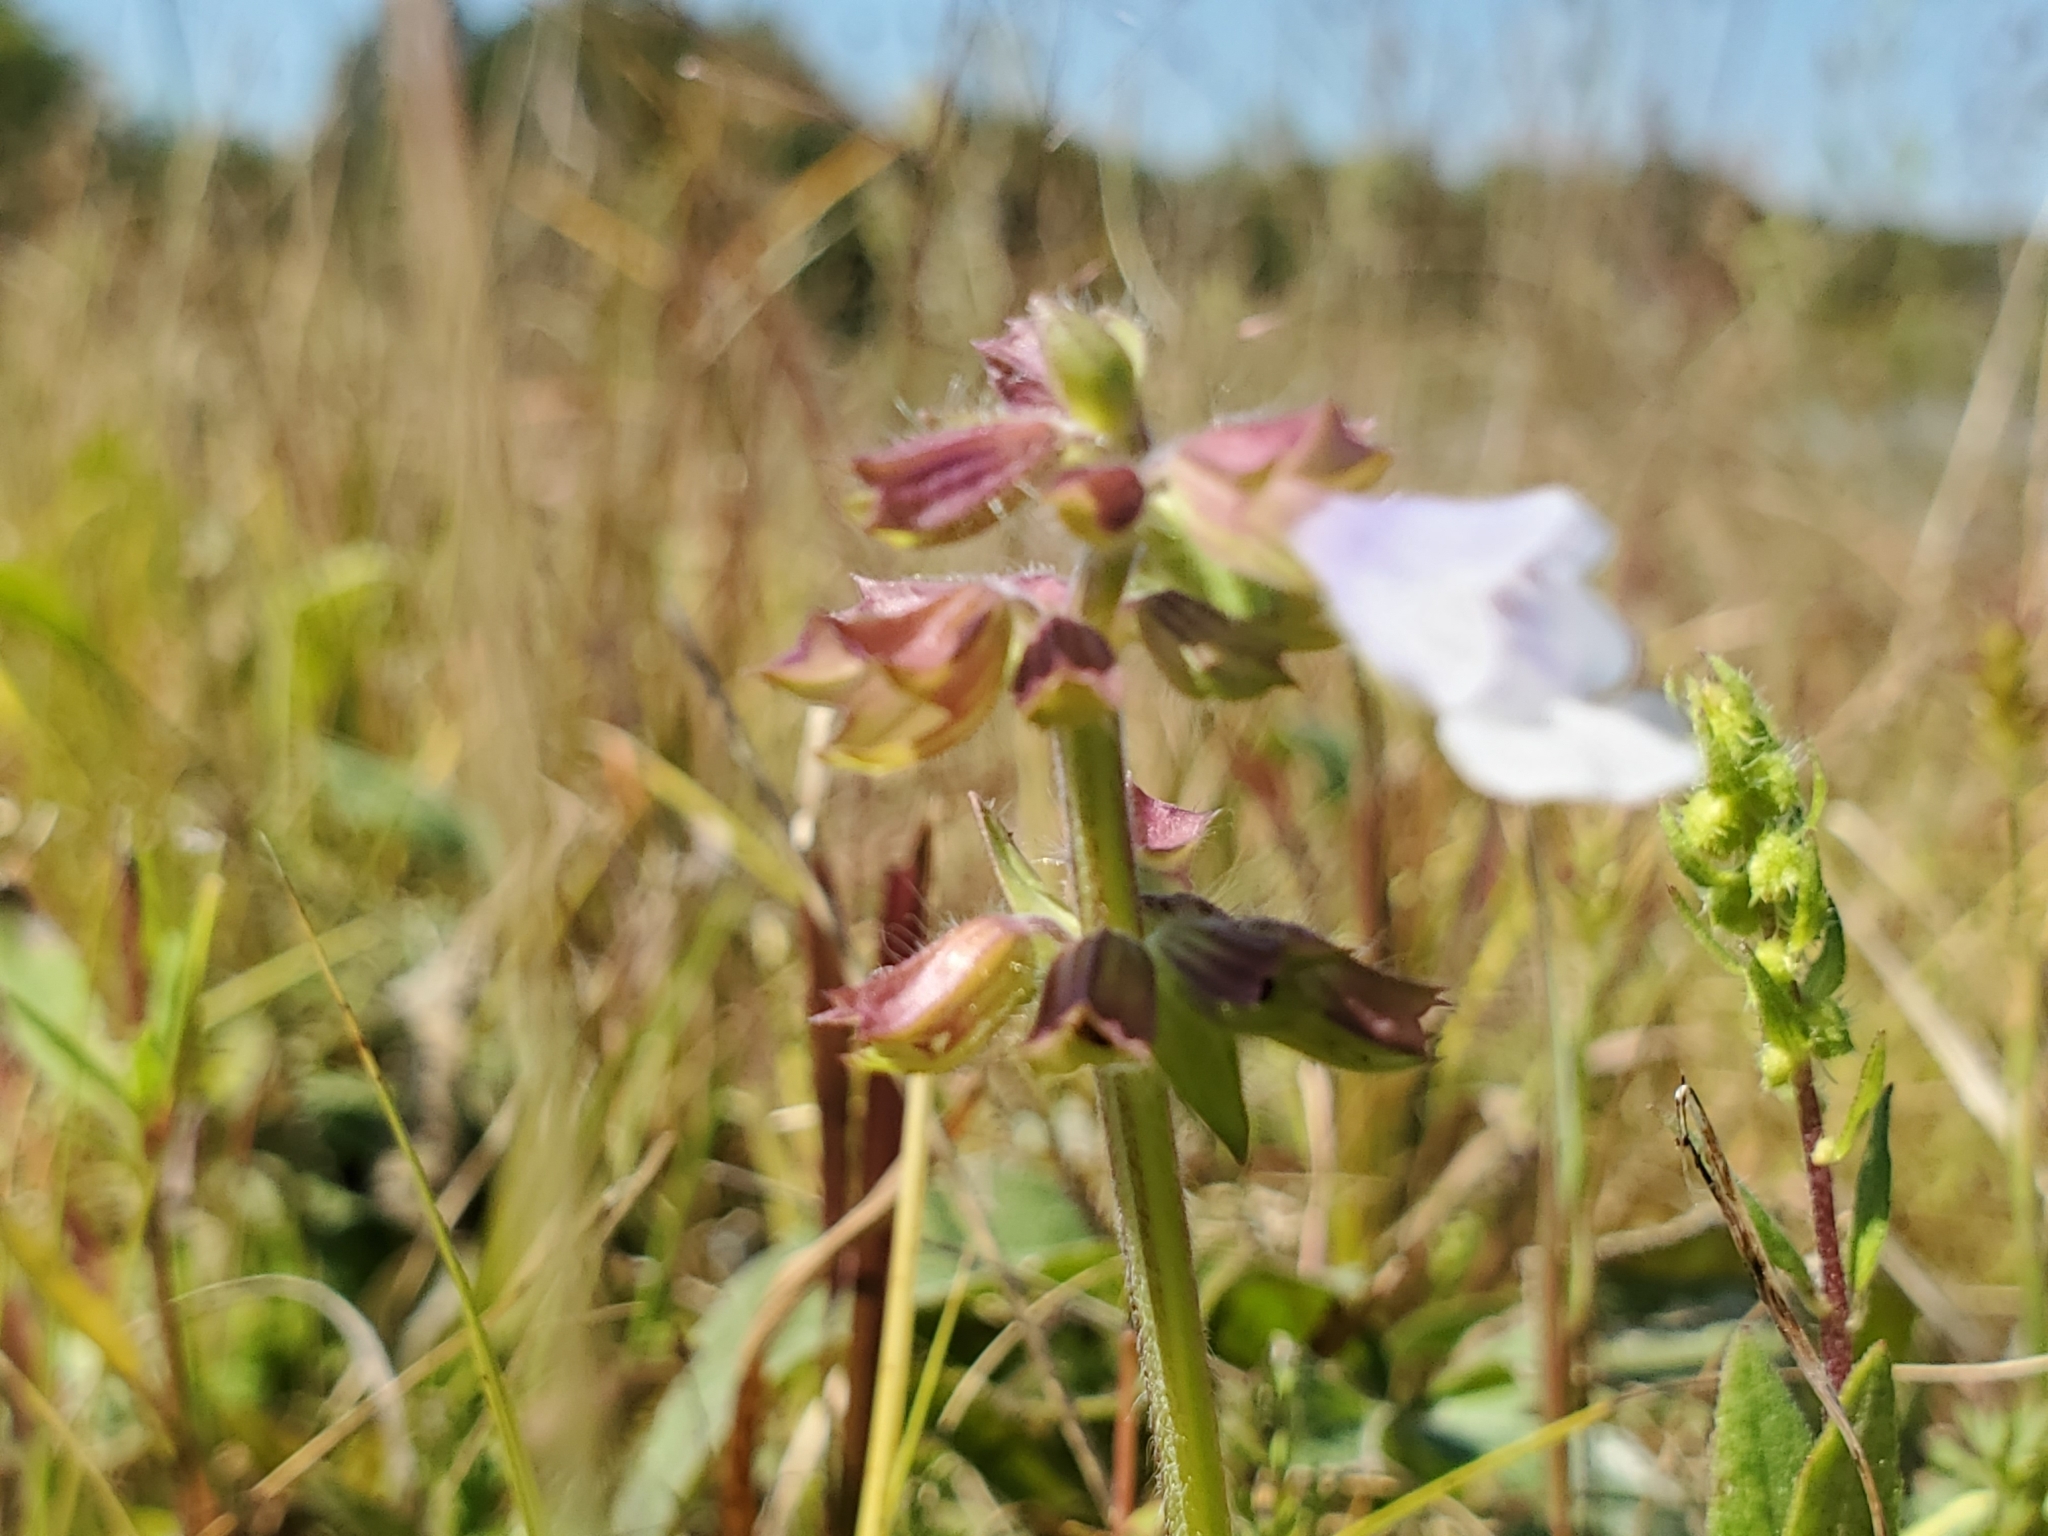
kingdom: Plantae
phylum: Tracheophyta
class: Magnoliopsida
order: Lamiales
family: Lamiaceae
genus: Salvia
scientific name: Salvia lyrata
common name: Cancerweed
